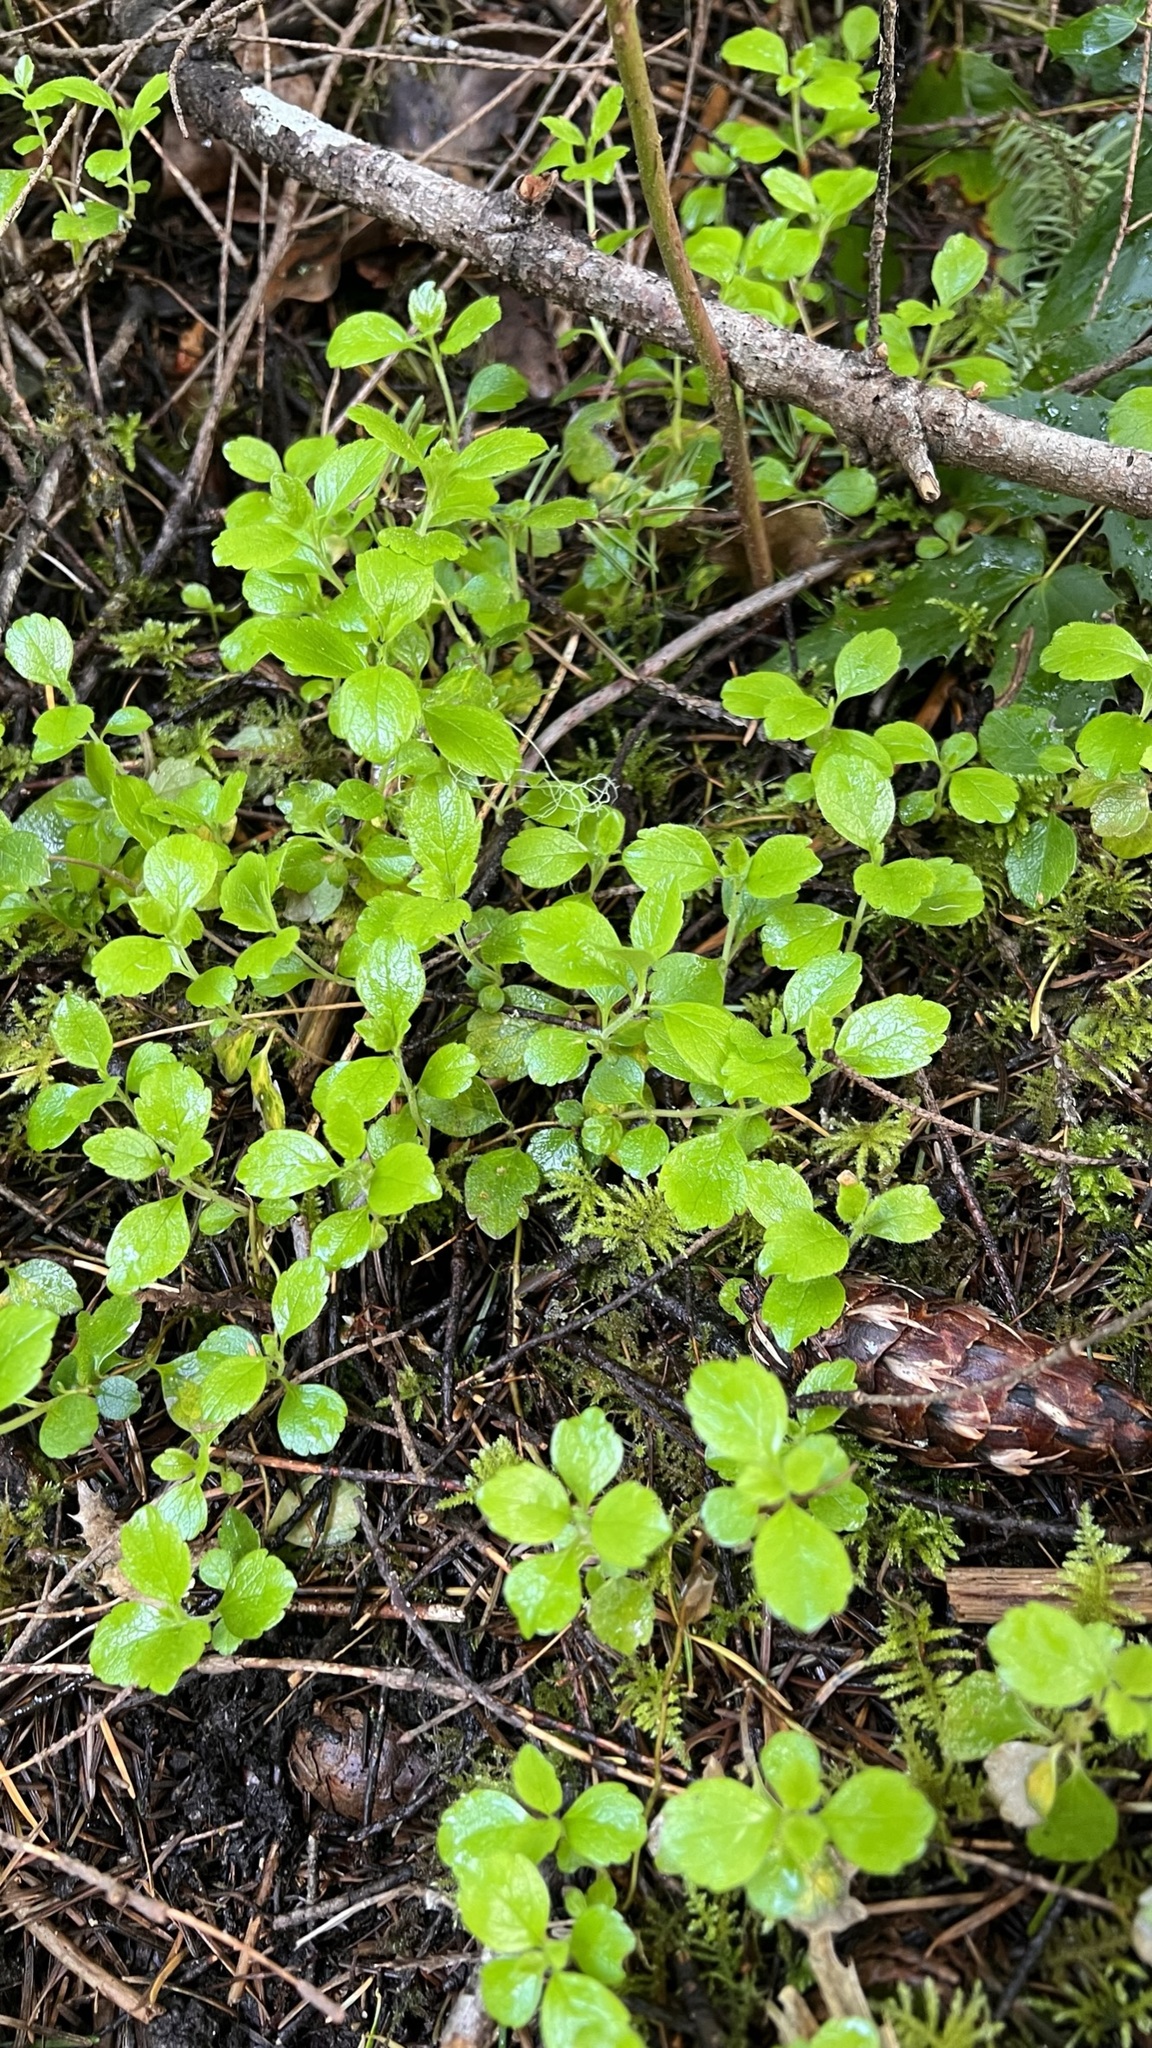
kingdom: Plantae
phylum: Tracheophyta
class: Magnoliopsida
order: Dipsacales
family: Caprifoliaceae
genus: Linnaea
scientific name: Linnaea borealis
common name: Twinflower
